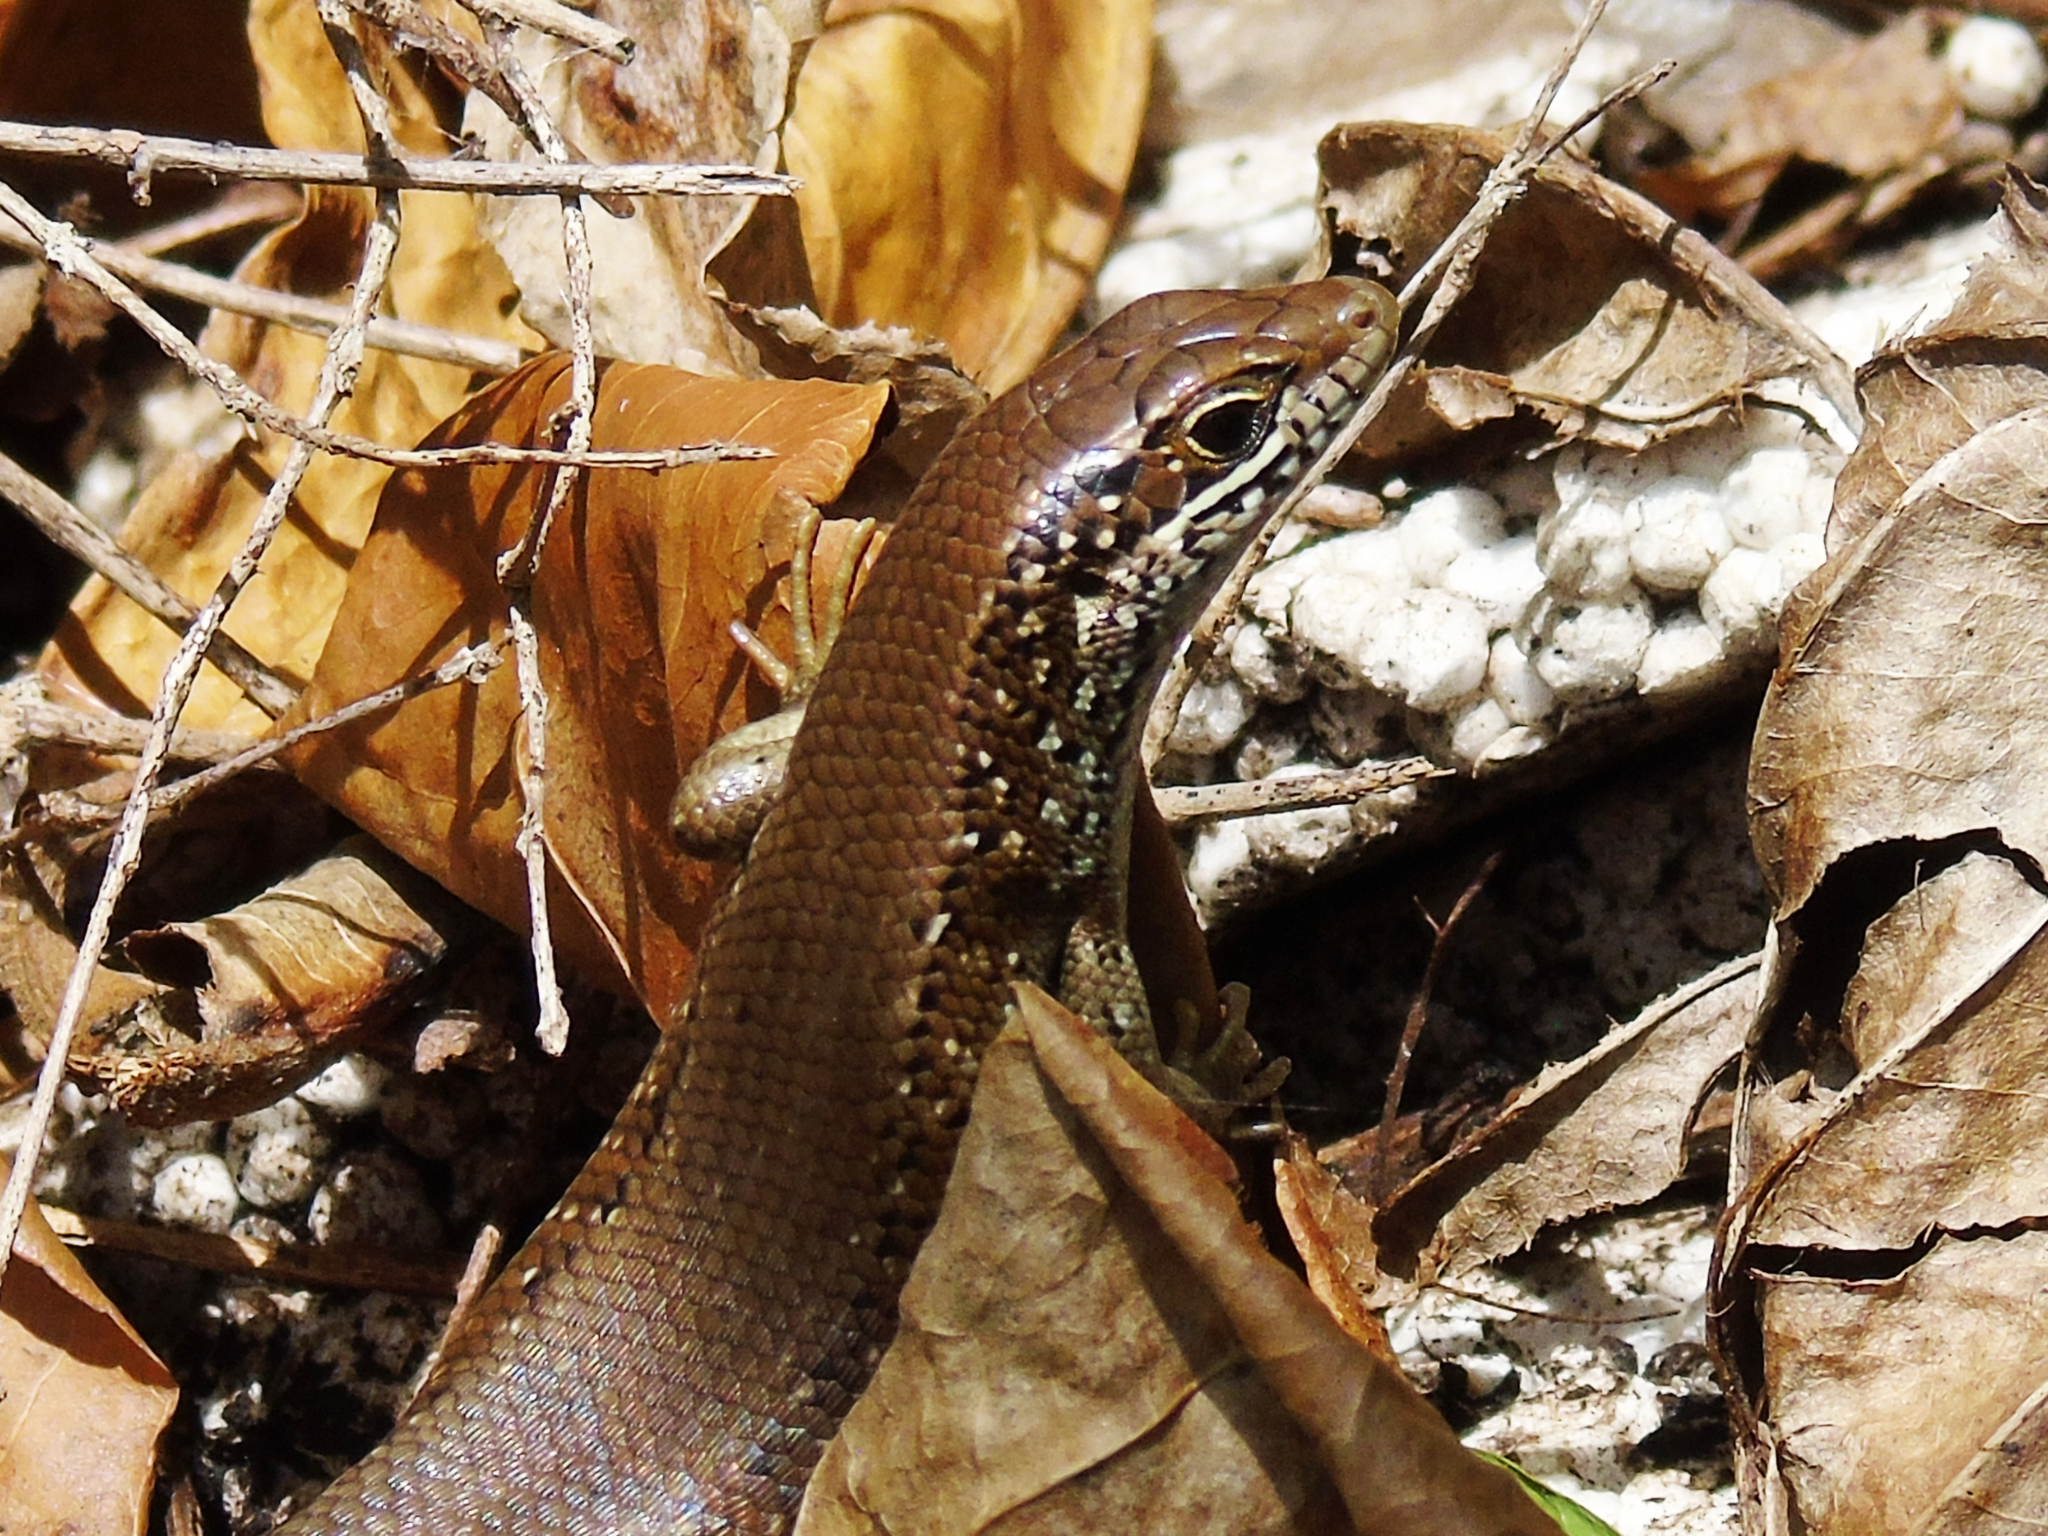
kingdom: Animalia
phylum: Chordata
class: Squamata
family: Scincidae
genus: Trachylepis
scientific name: Trachylepis maculilabris
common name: Speckle-lipped mabuya
